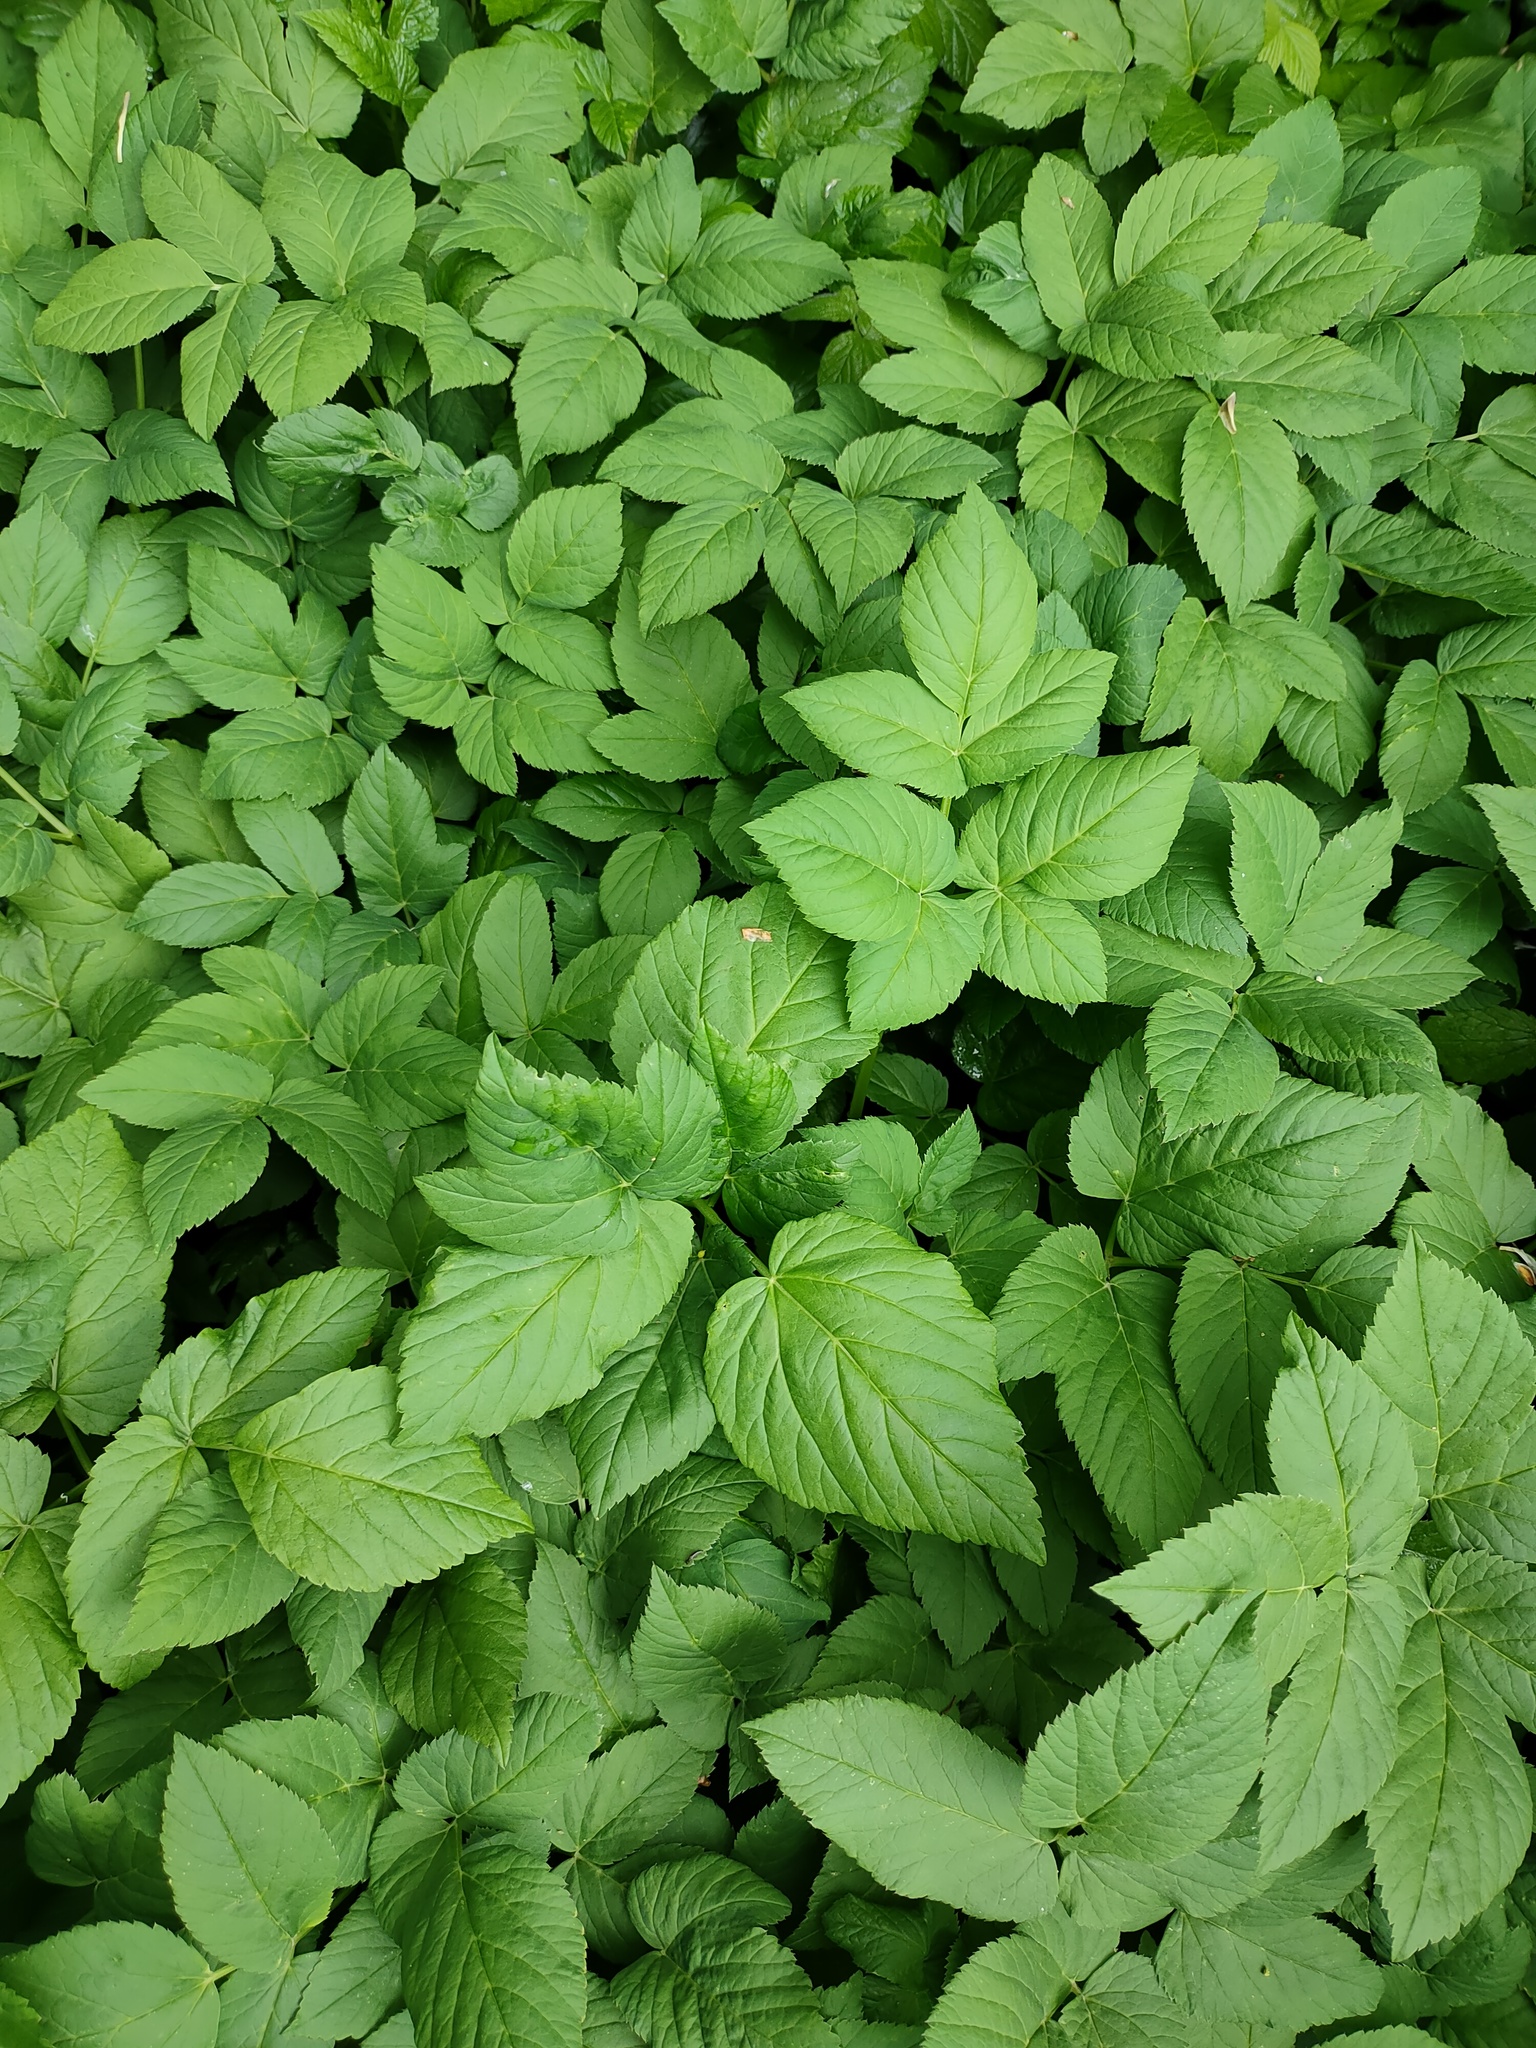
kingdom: Plantae
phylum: Tracheophyta
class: Magnoliopsida
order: Apiales
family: Apiaceae
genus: Aegopodium
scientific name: Aegopodium podagraria
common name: Ground-elder
